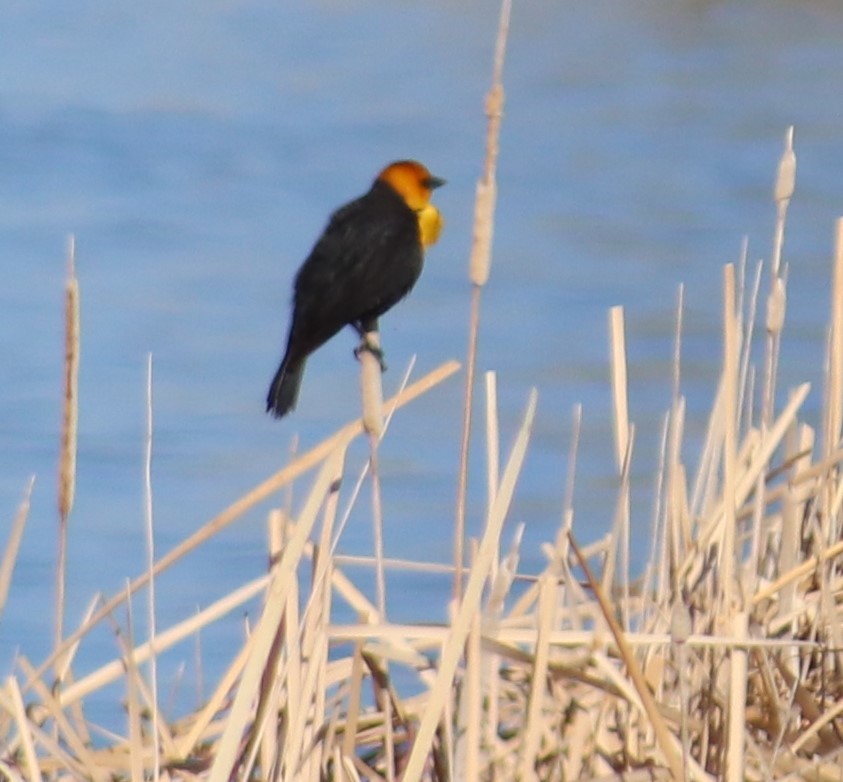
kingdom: Animalia
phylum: Chordata
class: Aves
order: Passeriformes
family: Icteridae
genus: Xanthocephalus
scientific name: Xanthocephalus xanthocephalus
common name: Yellow-headed blackbird
